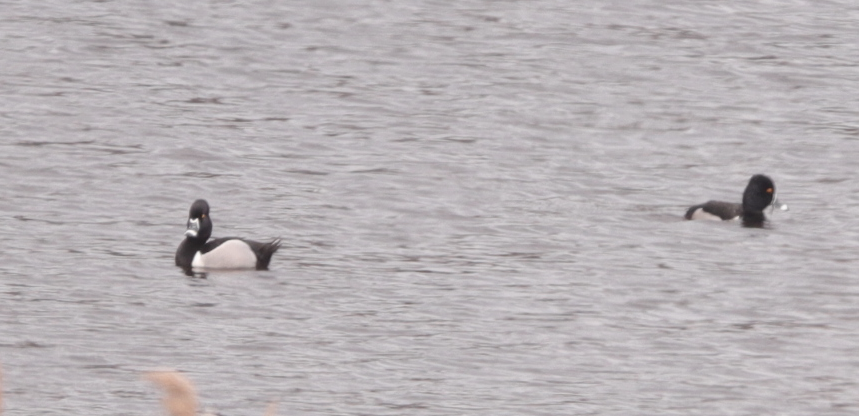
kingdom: Animalia
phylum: Chordata
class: Aves
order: Anseriformes
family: Anatidae
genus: Aythya
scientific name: Aythya collaris
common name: Ring-necked duck
